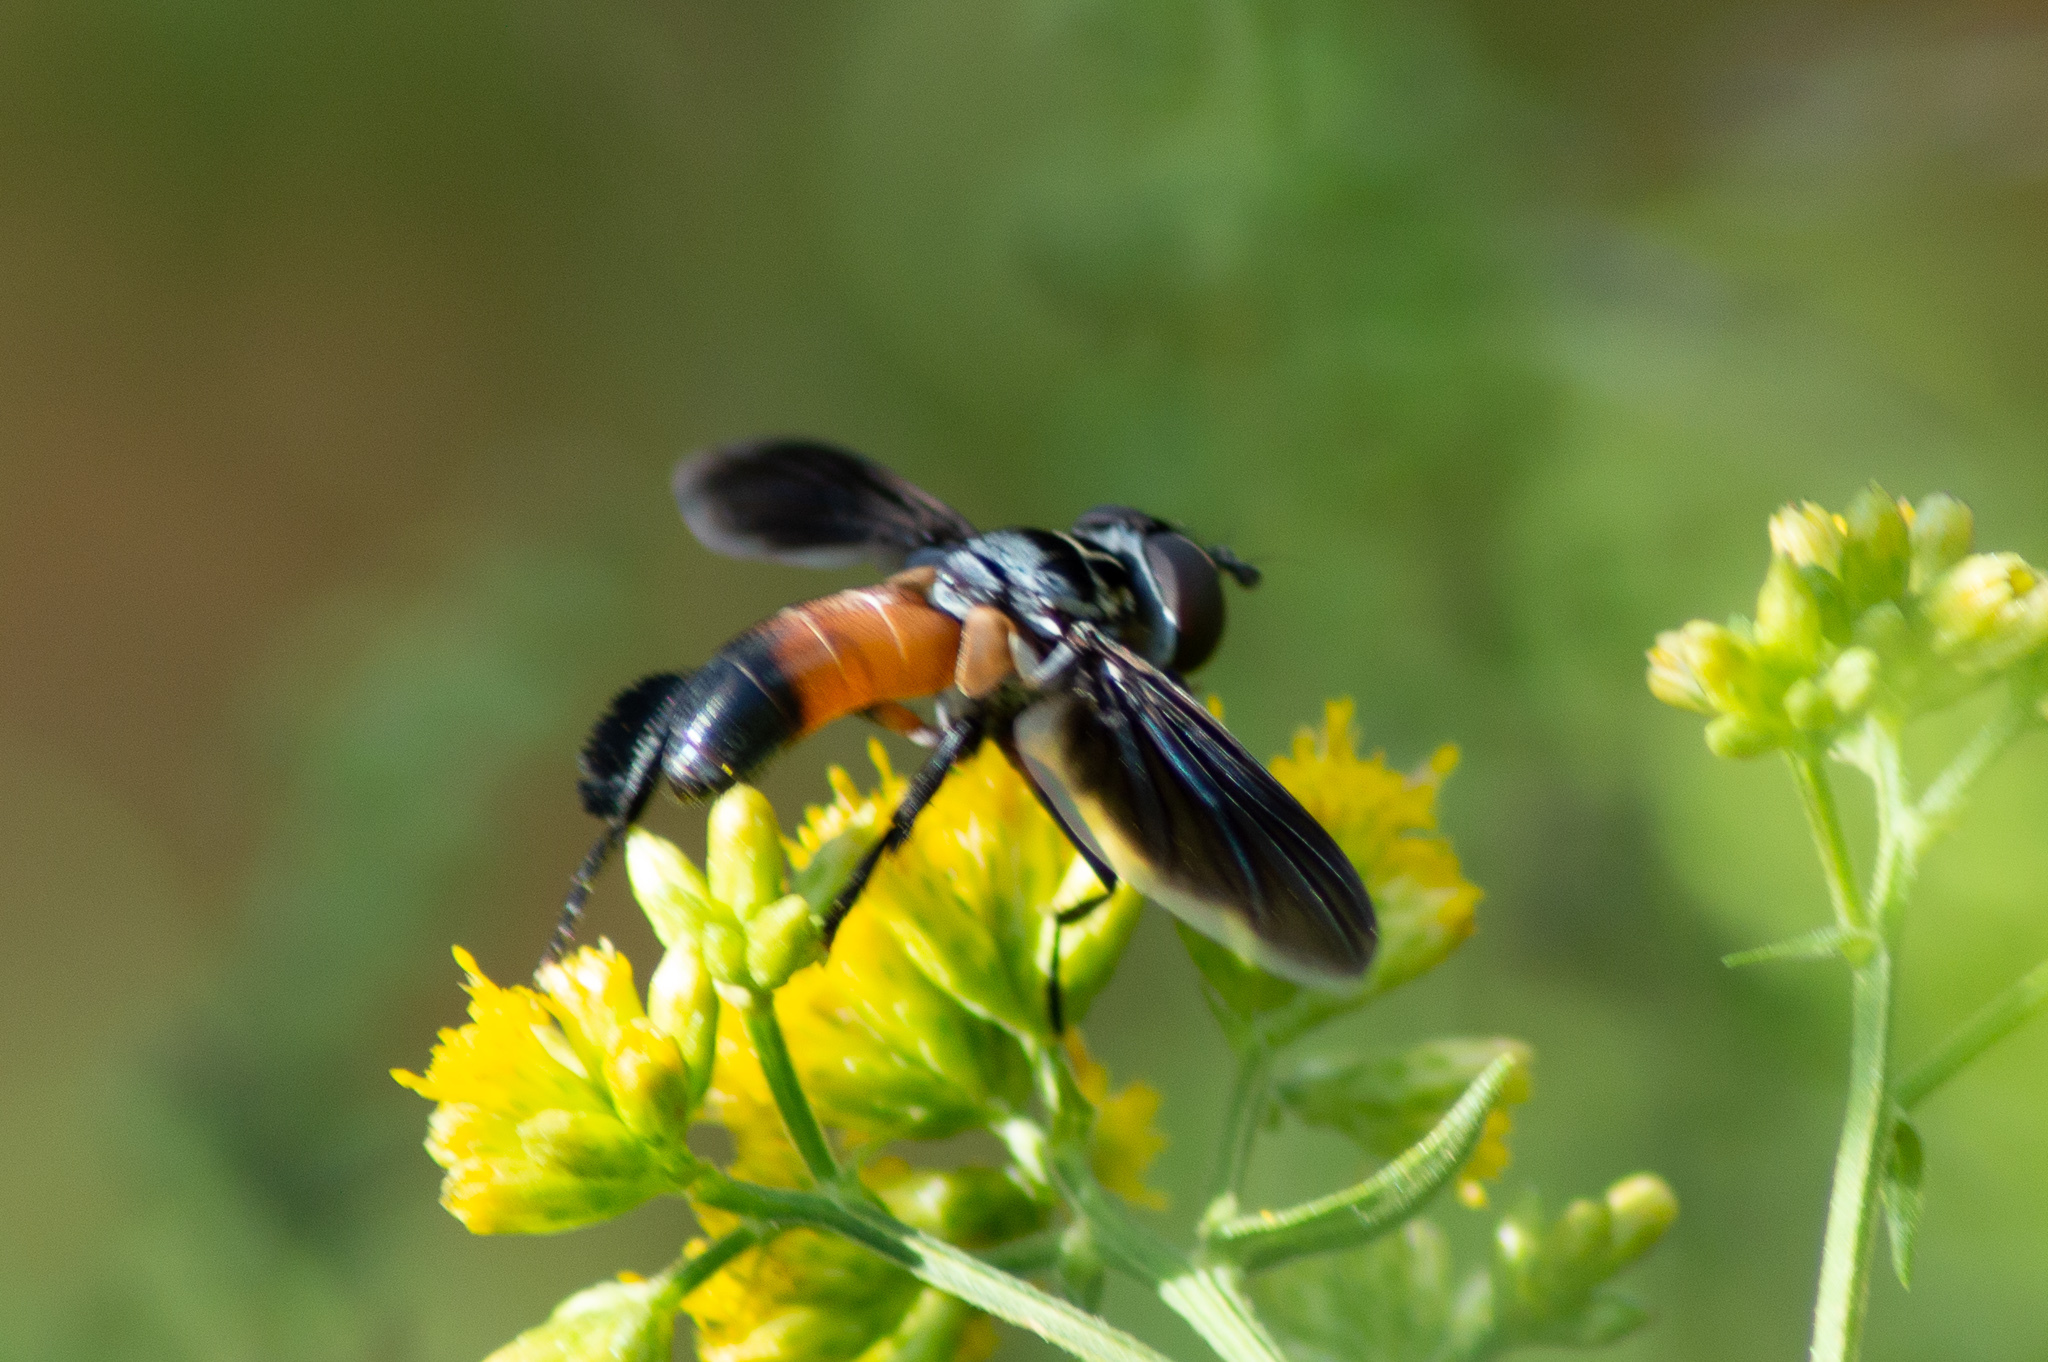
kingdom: Animalia
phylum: Arthropoda
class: Insecta
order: Diptera
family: Tachinidae
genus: Trichopoda
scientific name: Trichopoda pennipes
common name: Tachinid fly
